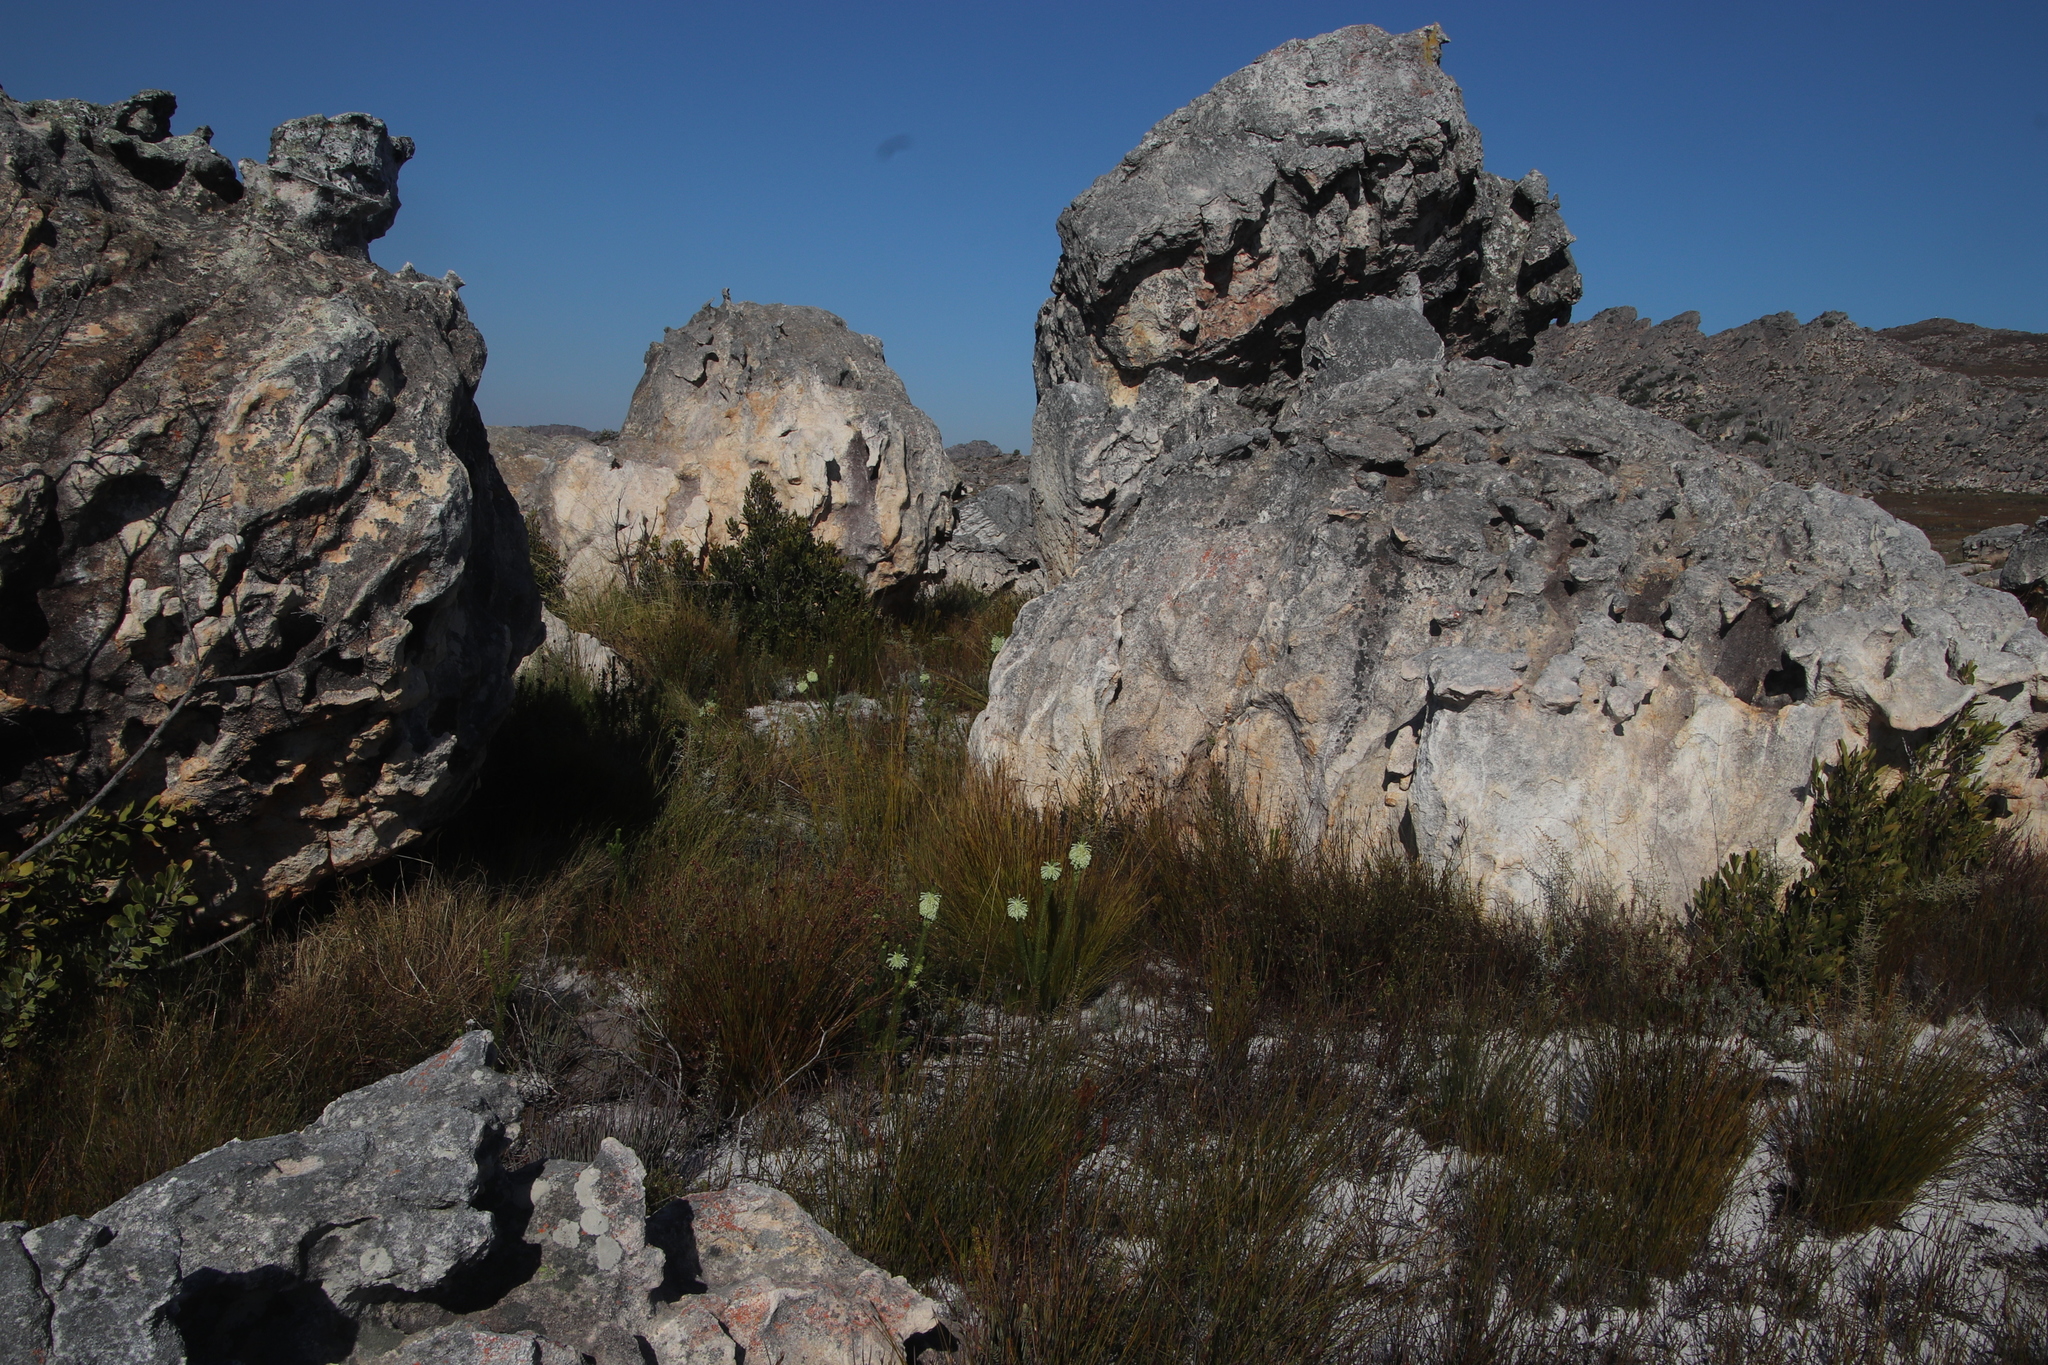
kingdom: Plantae
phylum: Tracheophyta
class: Magnoliopsida
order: Ericales
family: Ericaceae
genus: Erica
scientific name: Erica sessiliflora
